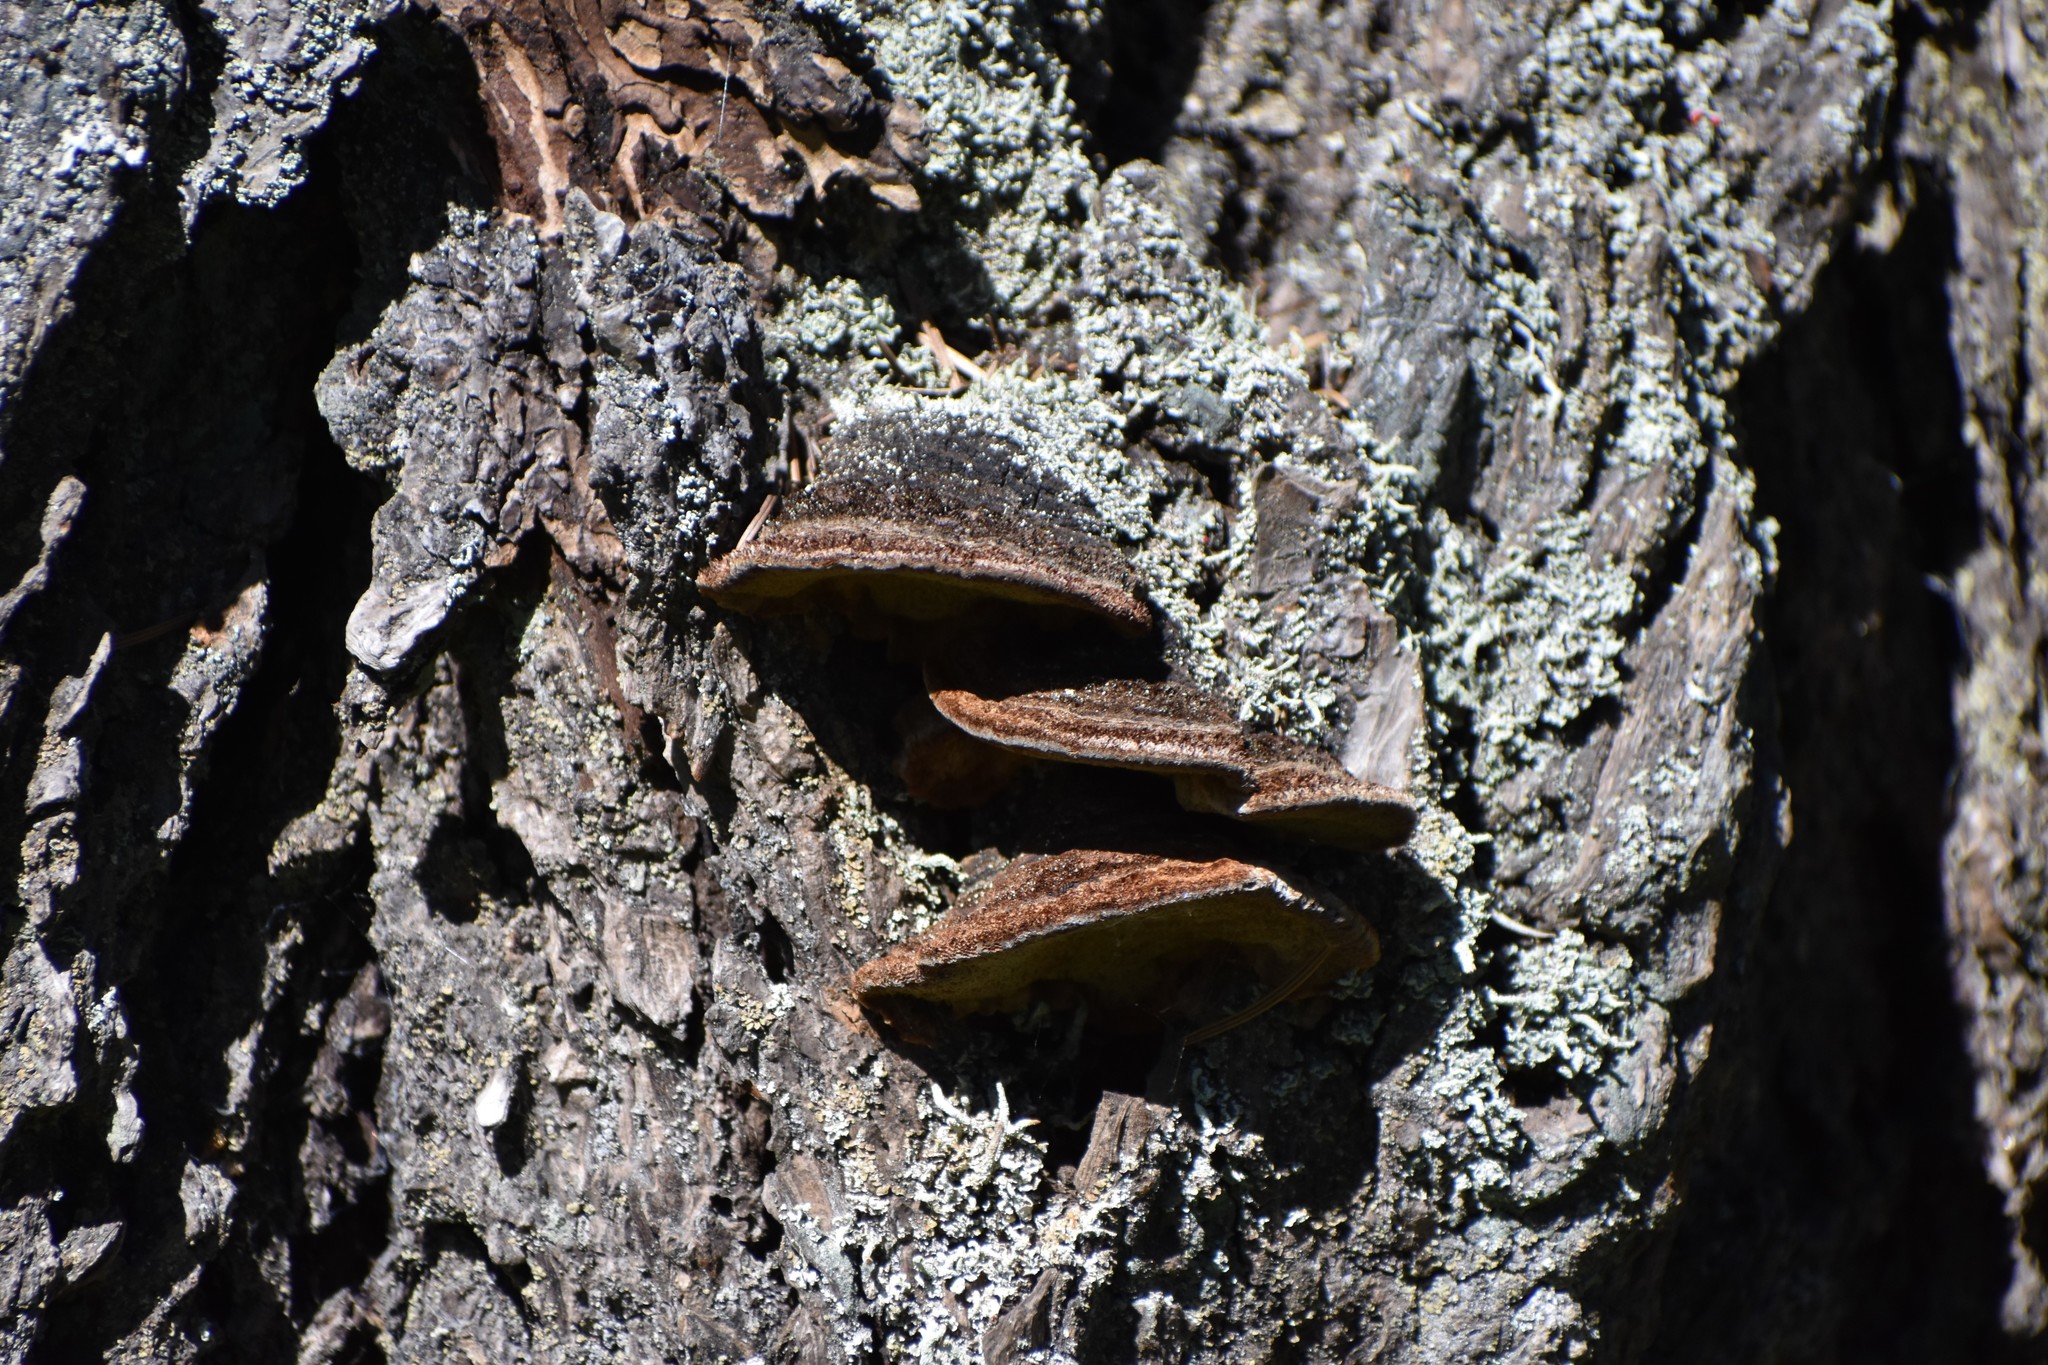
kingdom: Fungi
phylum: Basidiomycota
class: Agaricomycetes
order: Hymenochaetales
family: Hymenochaetaceae
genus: Porodaedalea
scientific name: Porodaedalea pini
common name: Pine bracket
